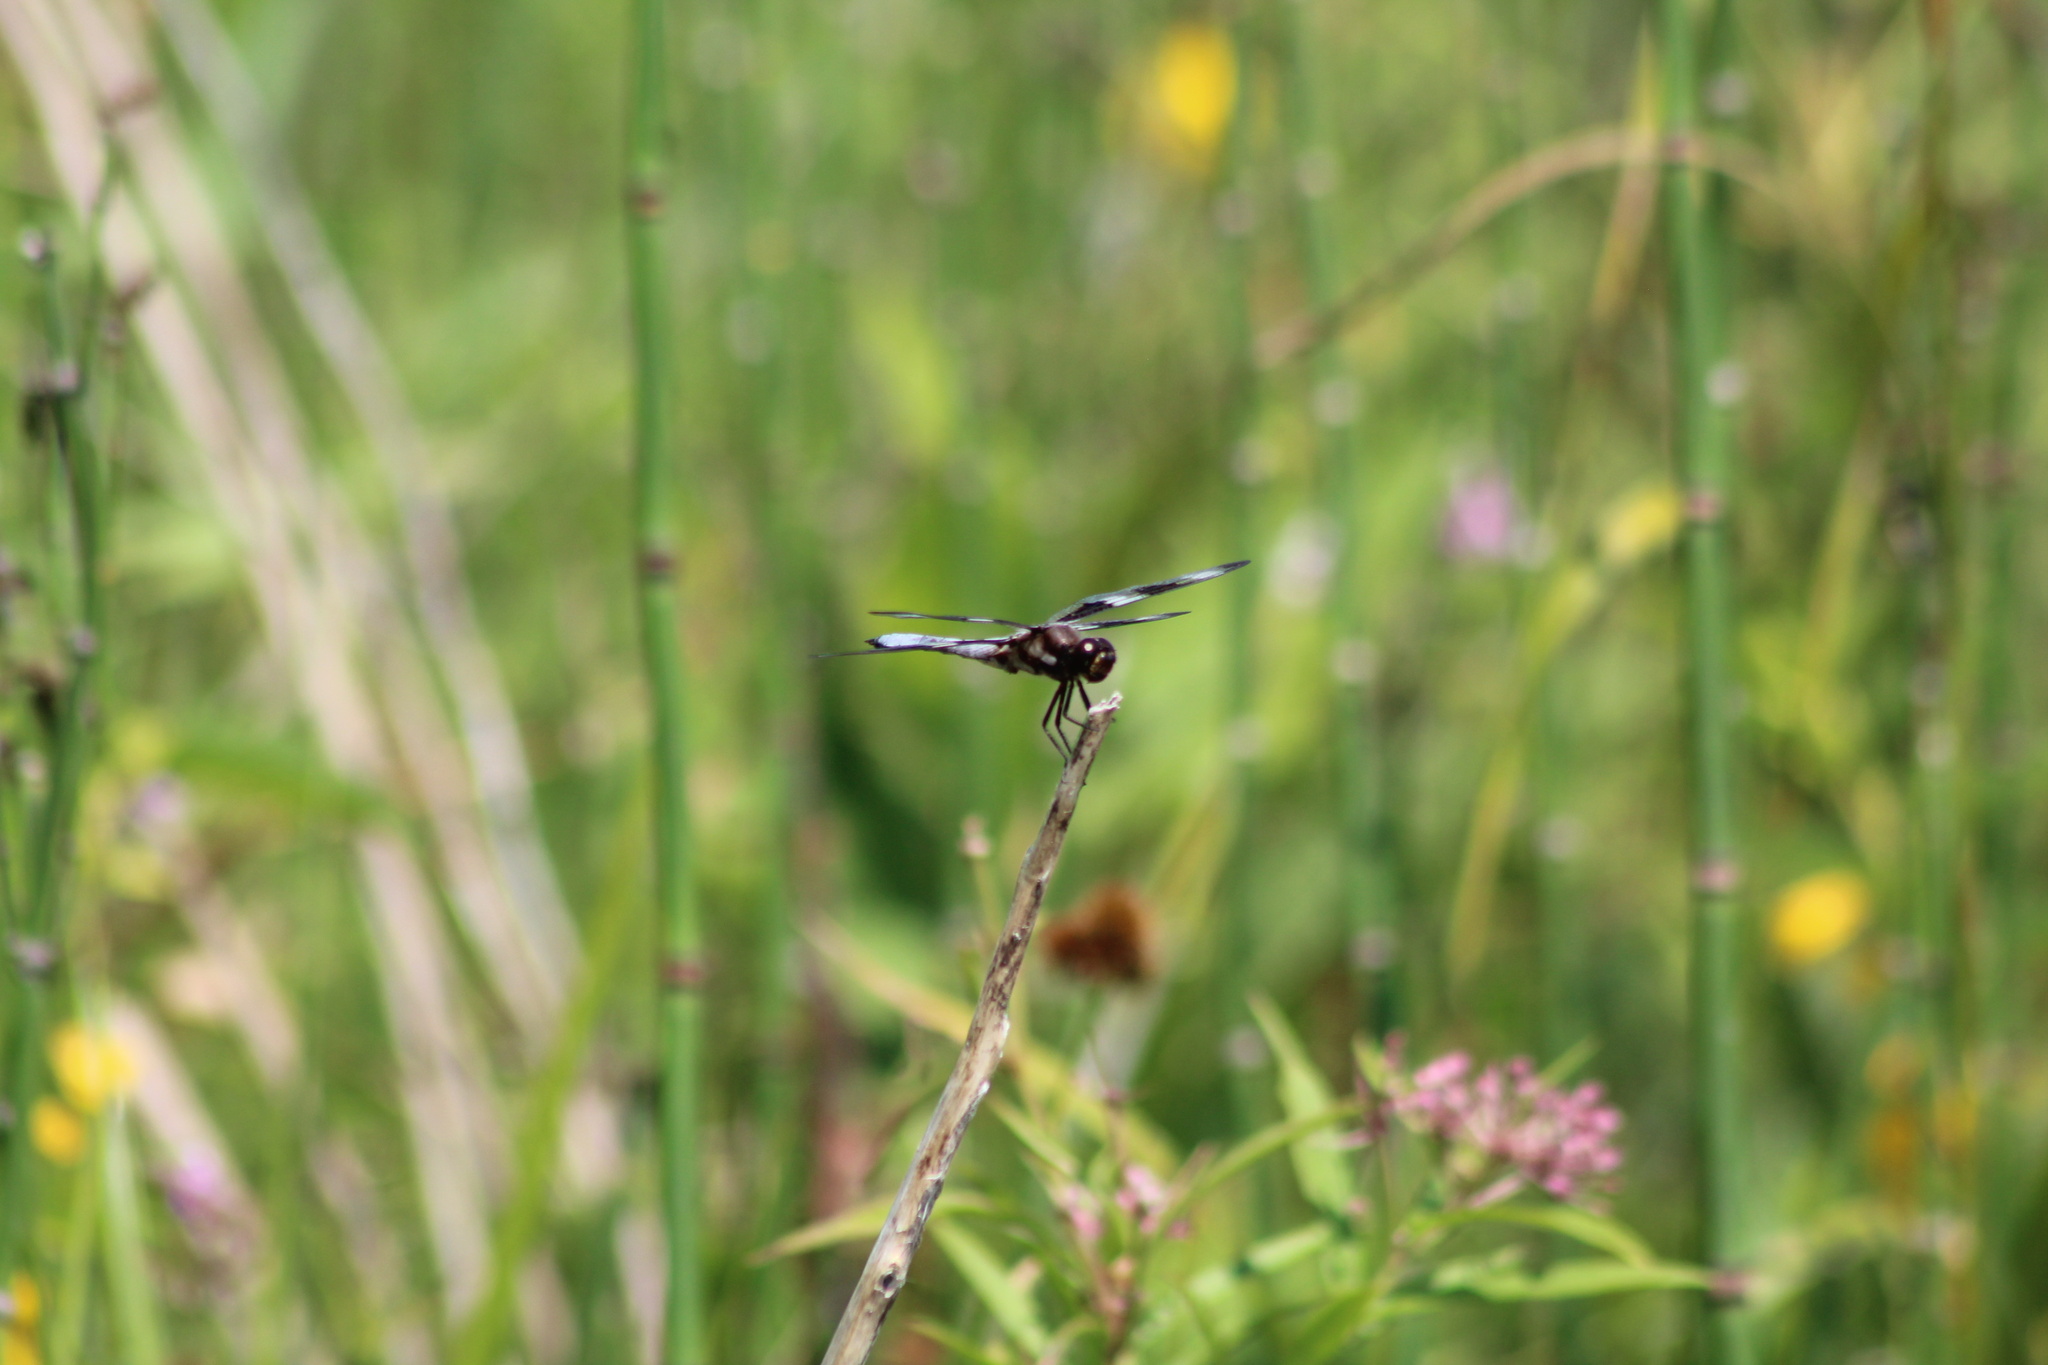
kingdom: Animalia
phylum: Arthropoda
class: Insecta
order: Odonata
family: Libellulidae
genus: Libellula
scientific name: Libellula pulchella
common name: Twelve-spotted skimmer
